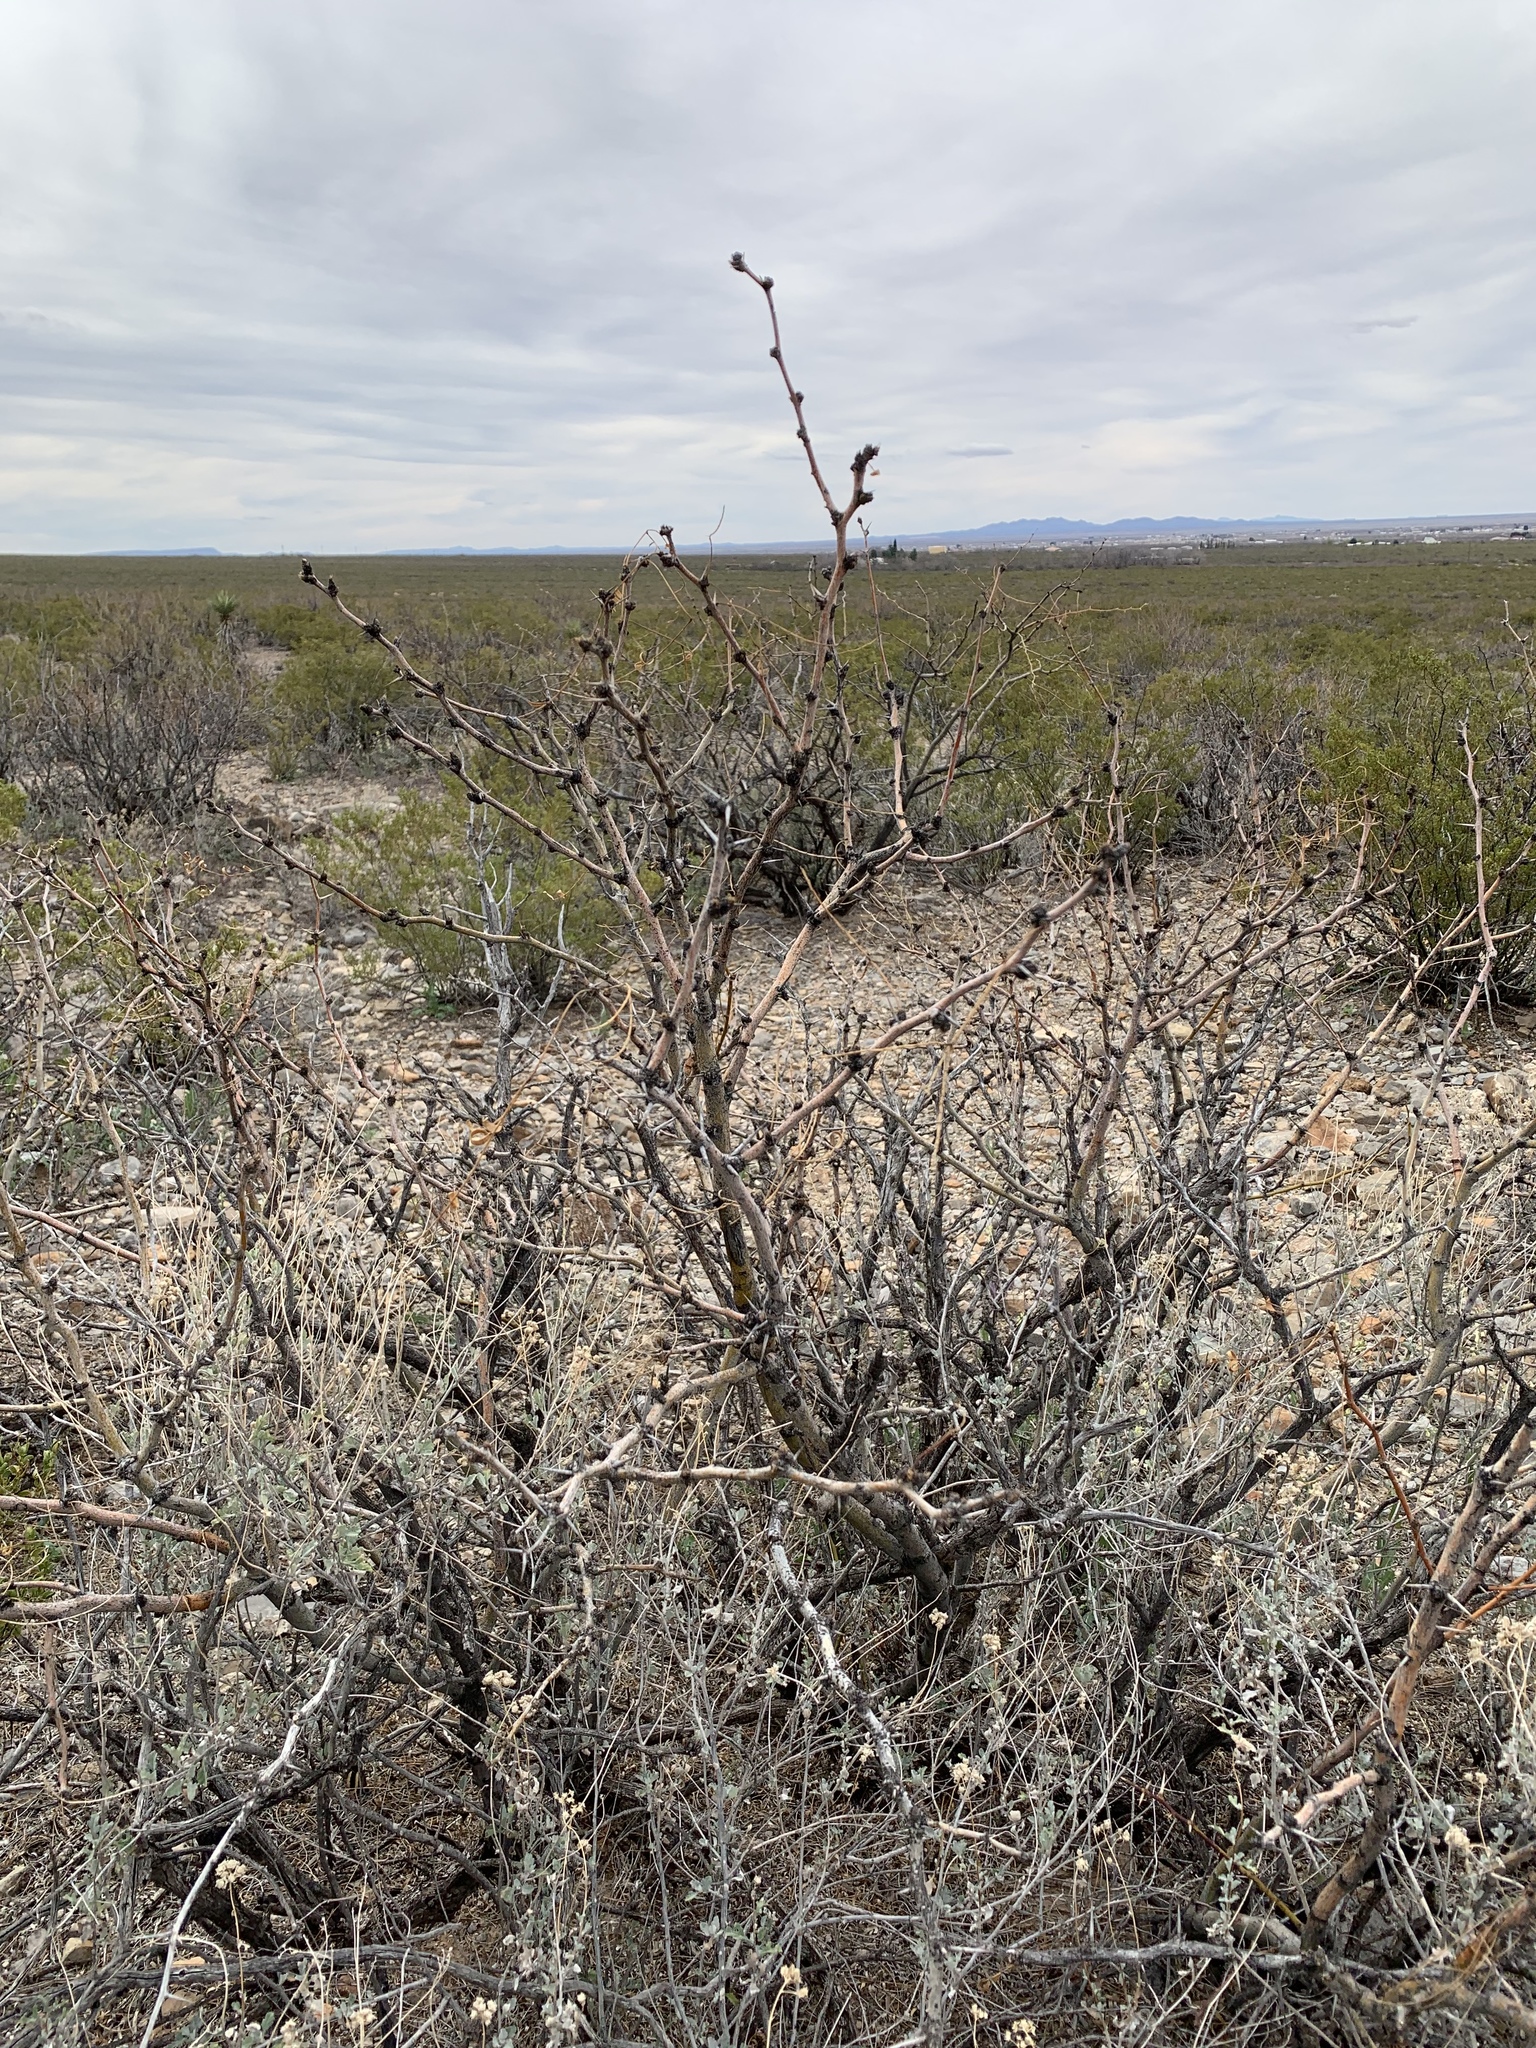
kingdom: Plantae
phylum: Tracheophyta
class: Magnoliopsida
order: Fabales
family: Fabaceae
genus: Prosopis
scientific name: Prosopis glandulosa
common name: Honey mesquite
